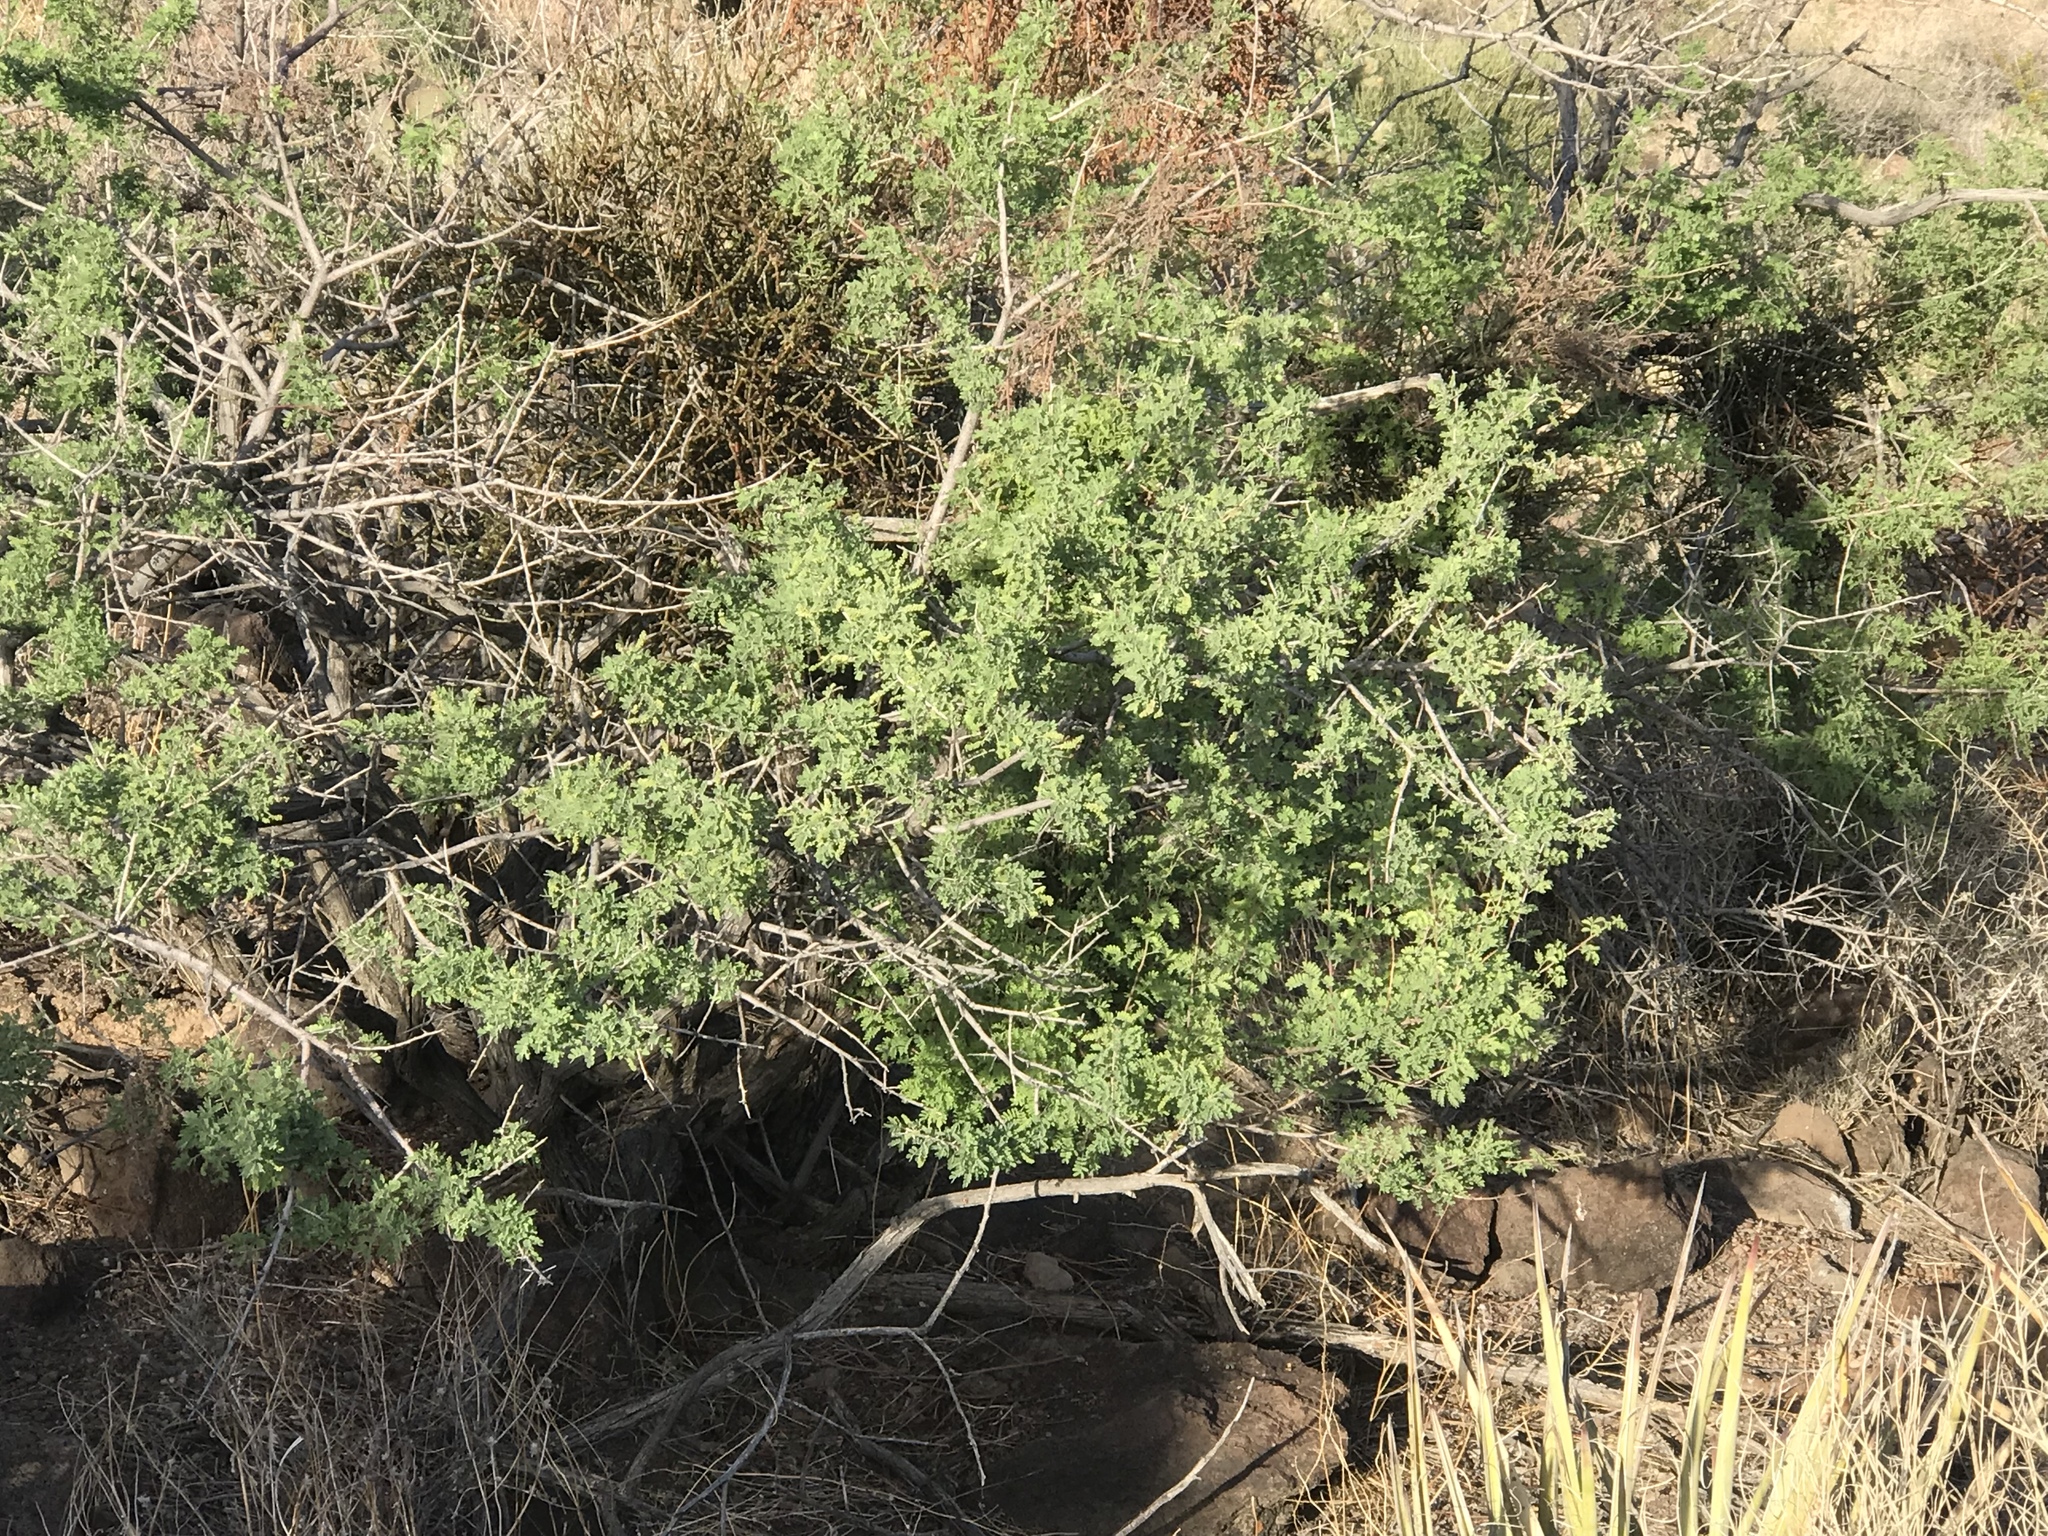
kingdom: Plantae
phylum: Tracheophyta
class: Magnoliopsida
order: Fabales
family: Fabaceae
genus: Senegalia
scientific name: Senegalia greggii
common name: Texas-mimosa
